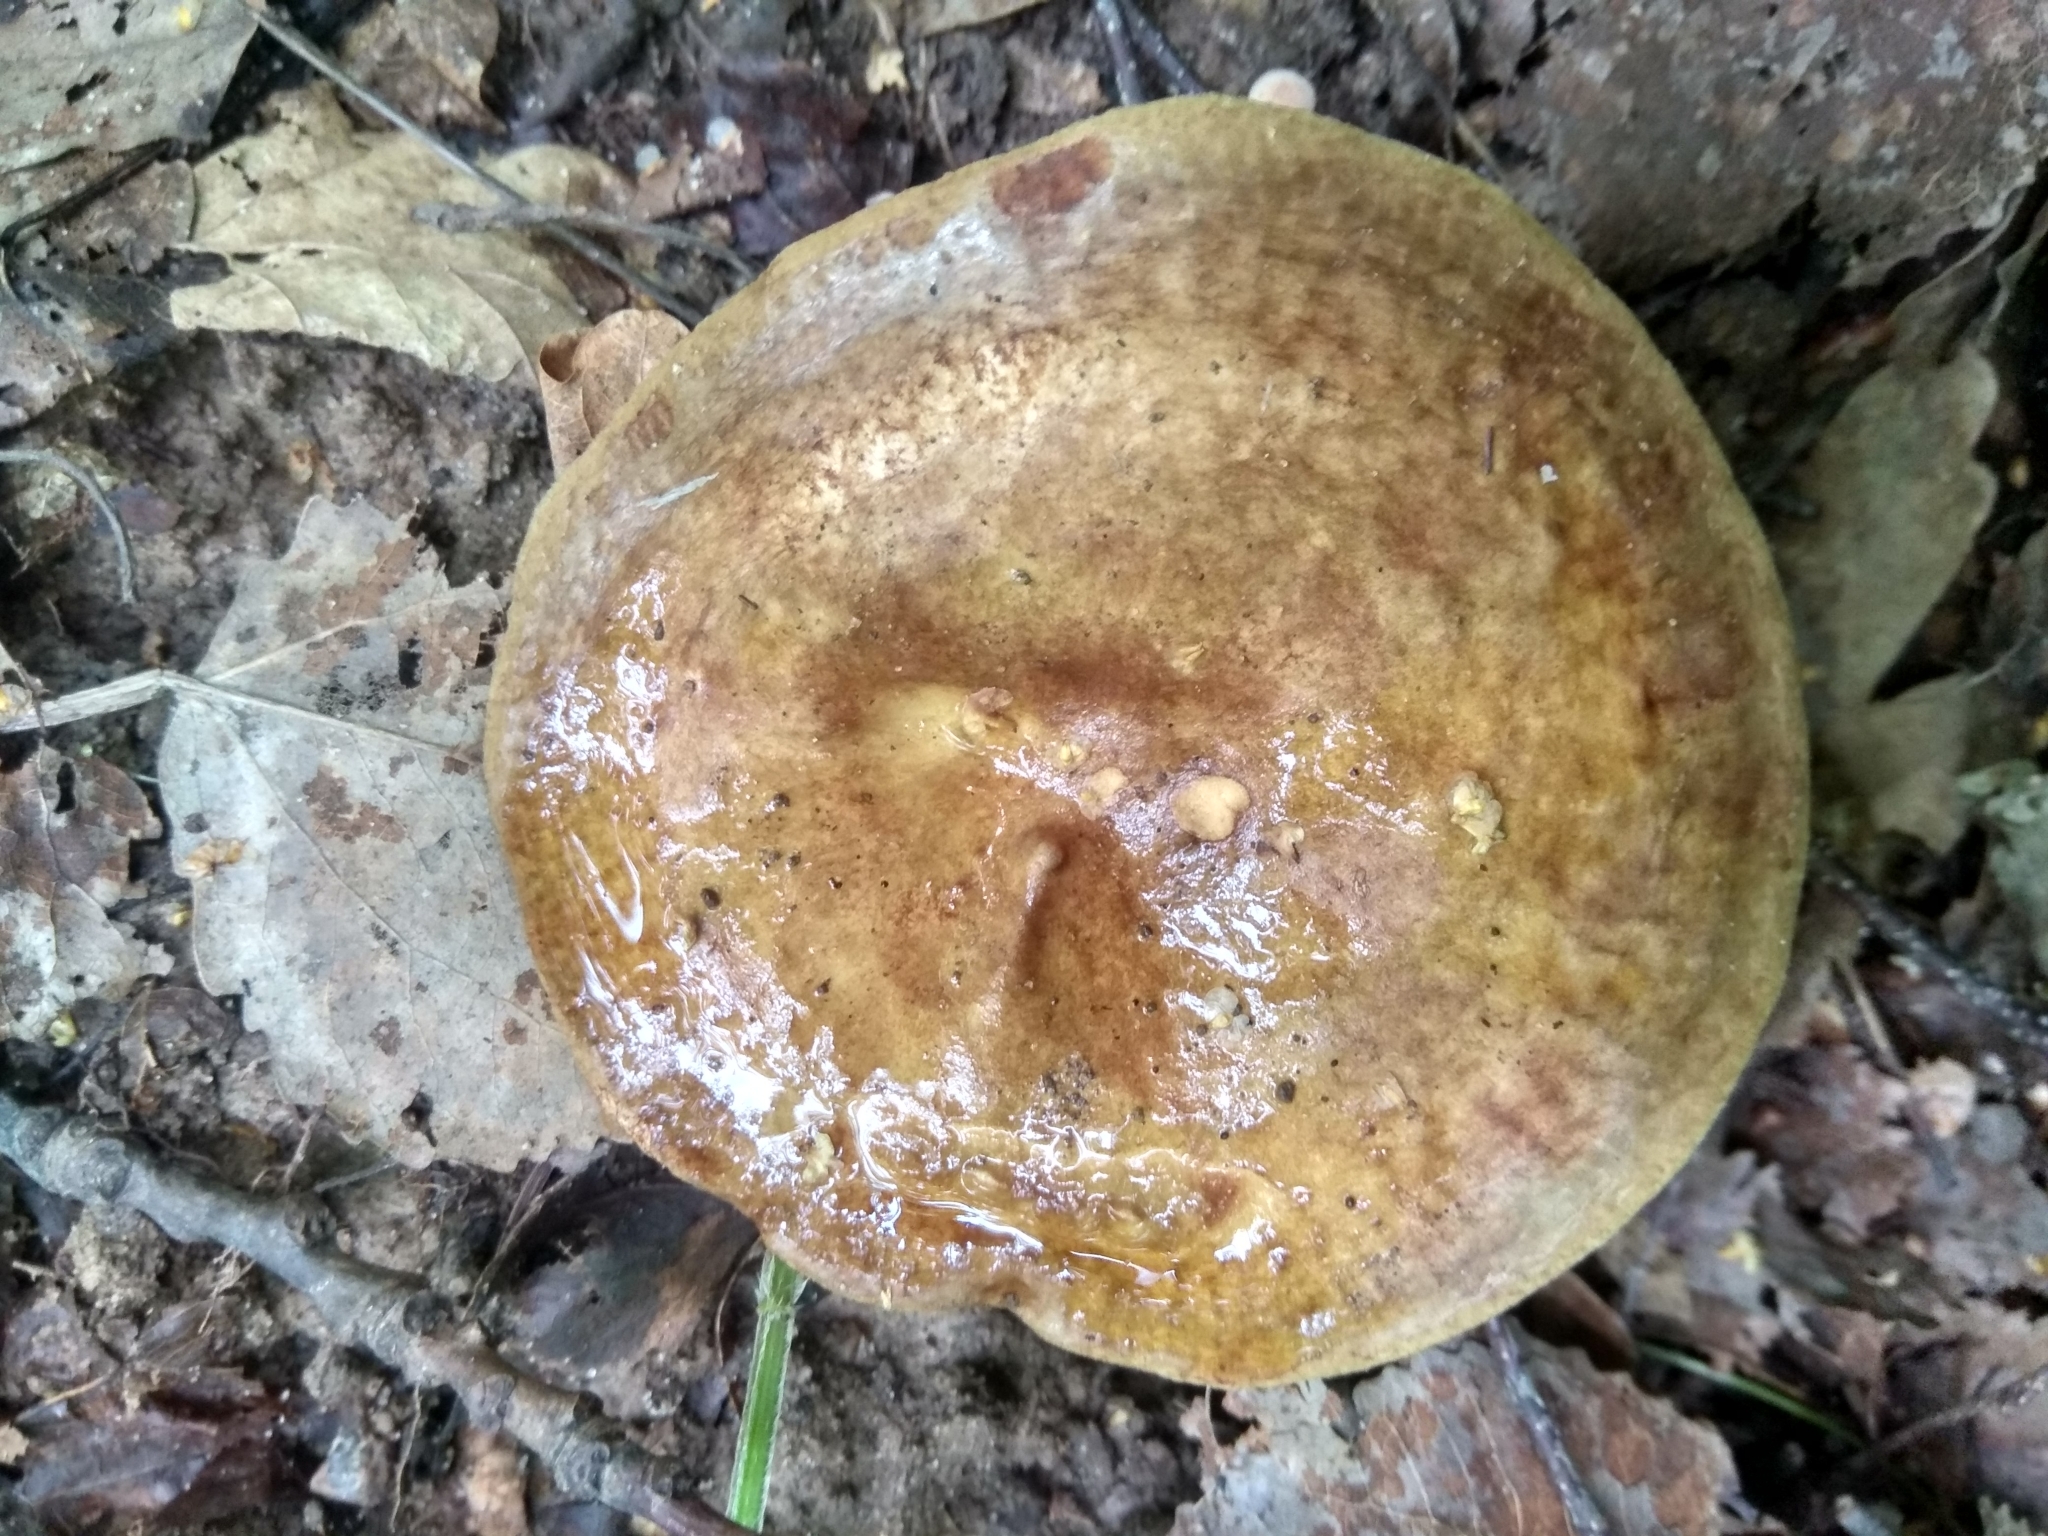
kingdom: Fungi
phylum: Basidiomycota
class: Agaricomycetes
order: Boletales
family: Paxillaceae
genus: Paxillus
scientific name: Paxillus involutus
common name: Brown roll rim
